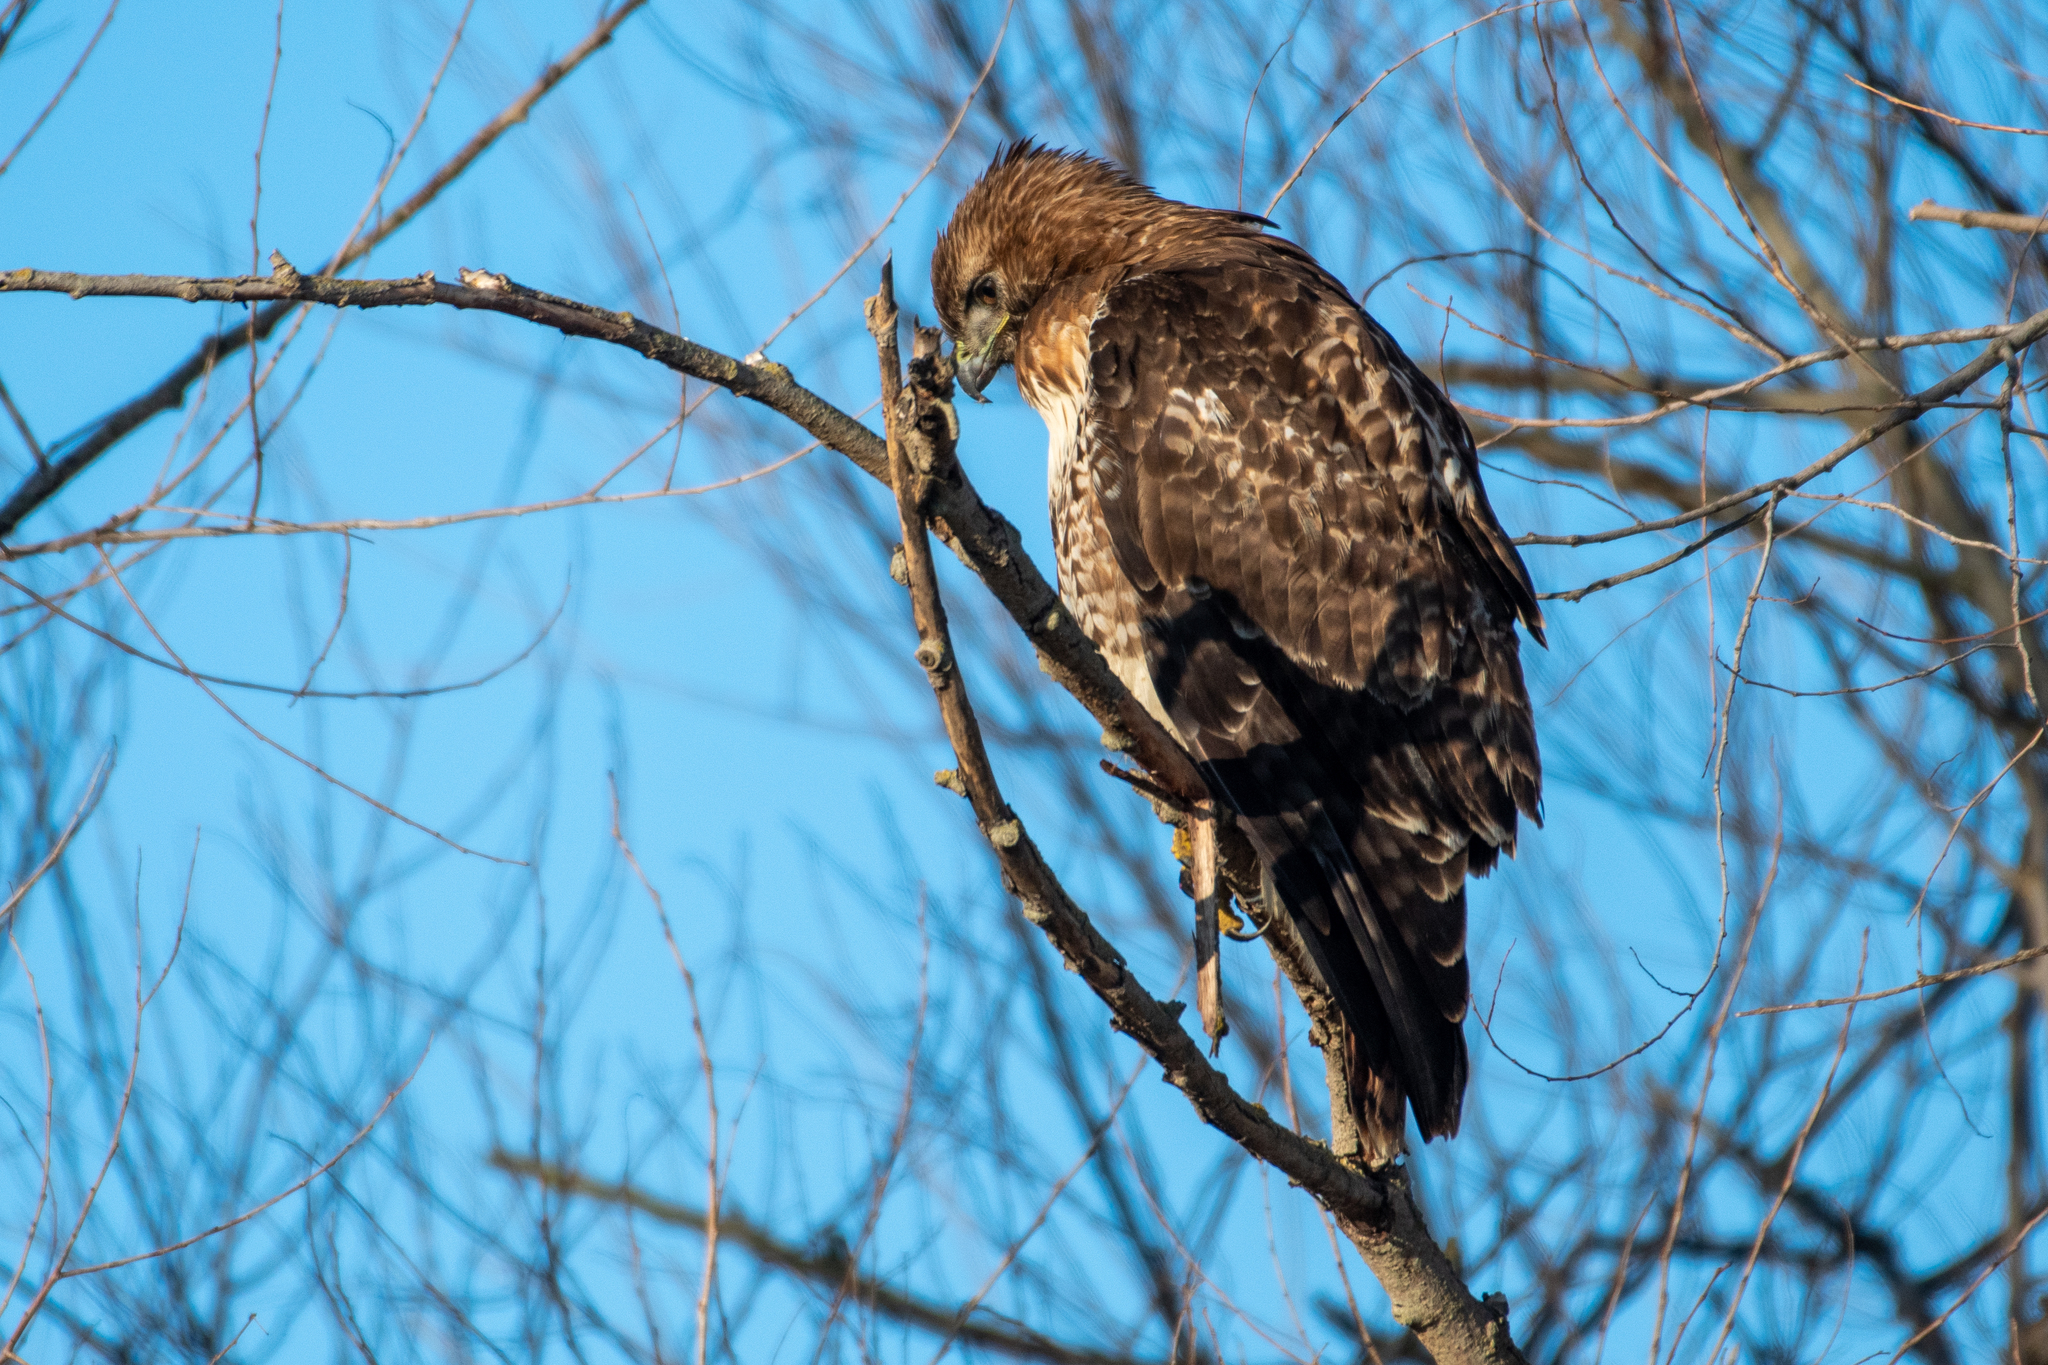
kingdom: Animalia
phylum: Chordata
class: Aves
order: Accipitriformes
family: Accipitridae
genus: Buteo
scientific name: Buteo jamaicensis
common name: Red-tailed hawk
